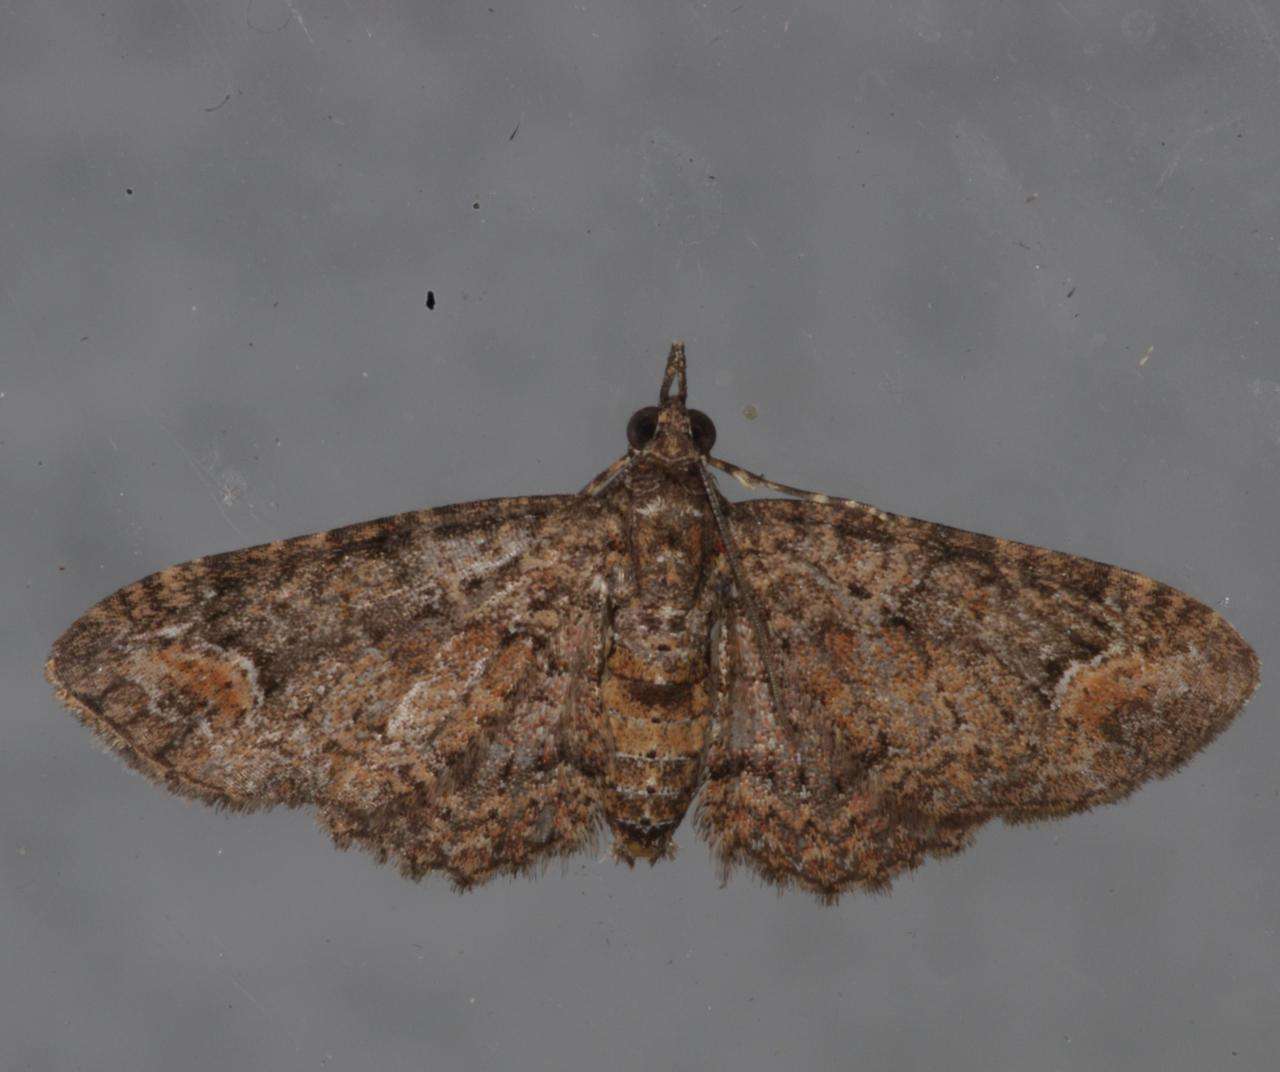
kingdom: Animalia
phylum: Arthropoda
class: Insecta
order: Lepidoptera
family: Geometridae
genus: Pasiphilodes
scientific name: Pasiphilodes testulata
